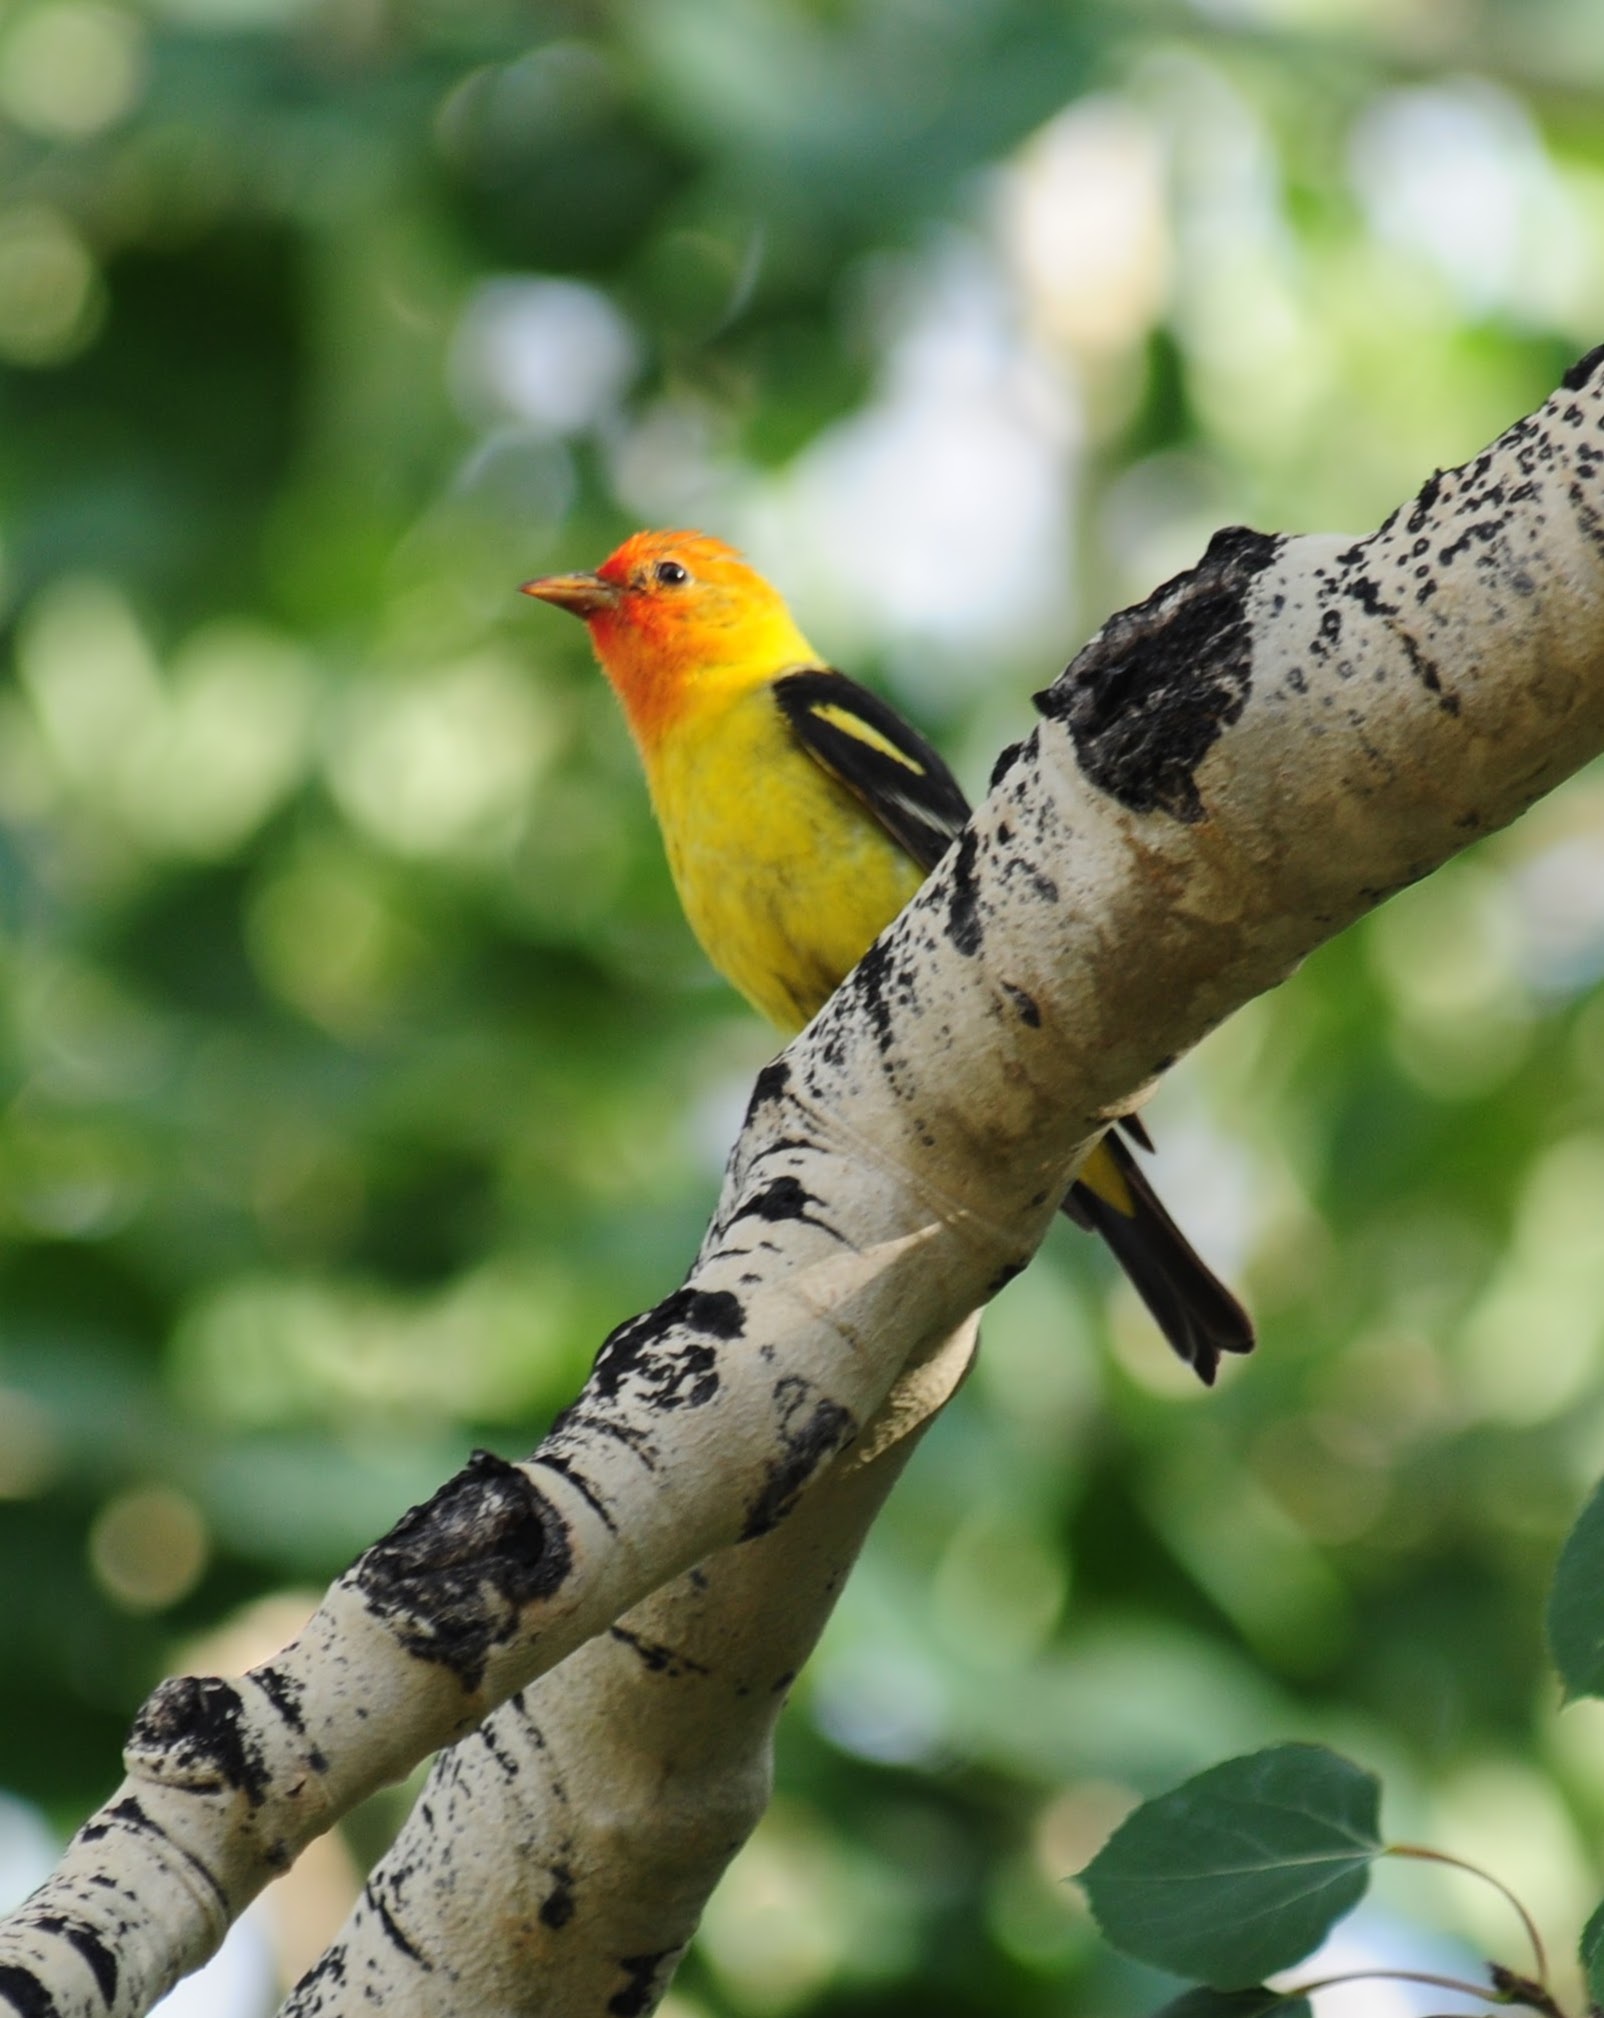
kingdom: Animalia
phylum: Chordata
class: Aves
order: Passeriformes
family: Cardinalidae
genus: Piranga
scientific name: Piranga ludoviciana
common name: Western tanager
